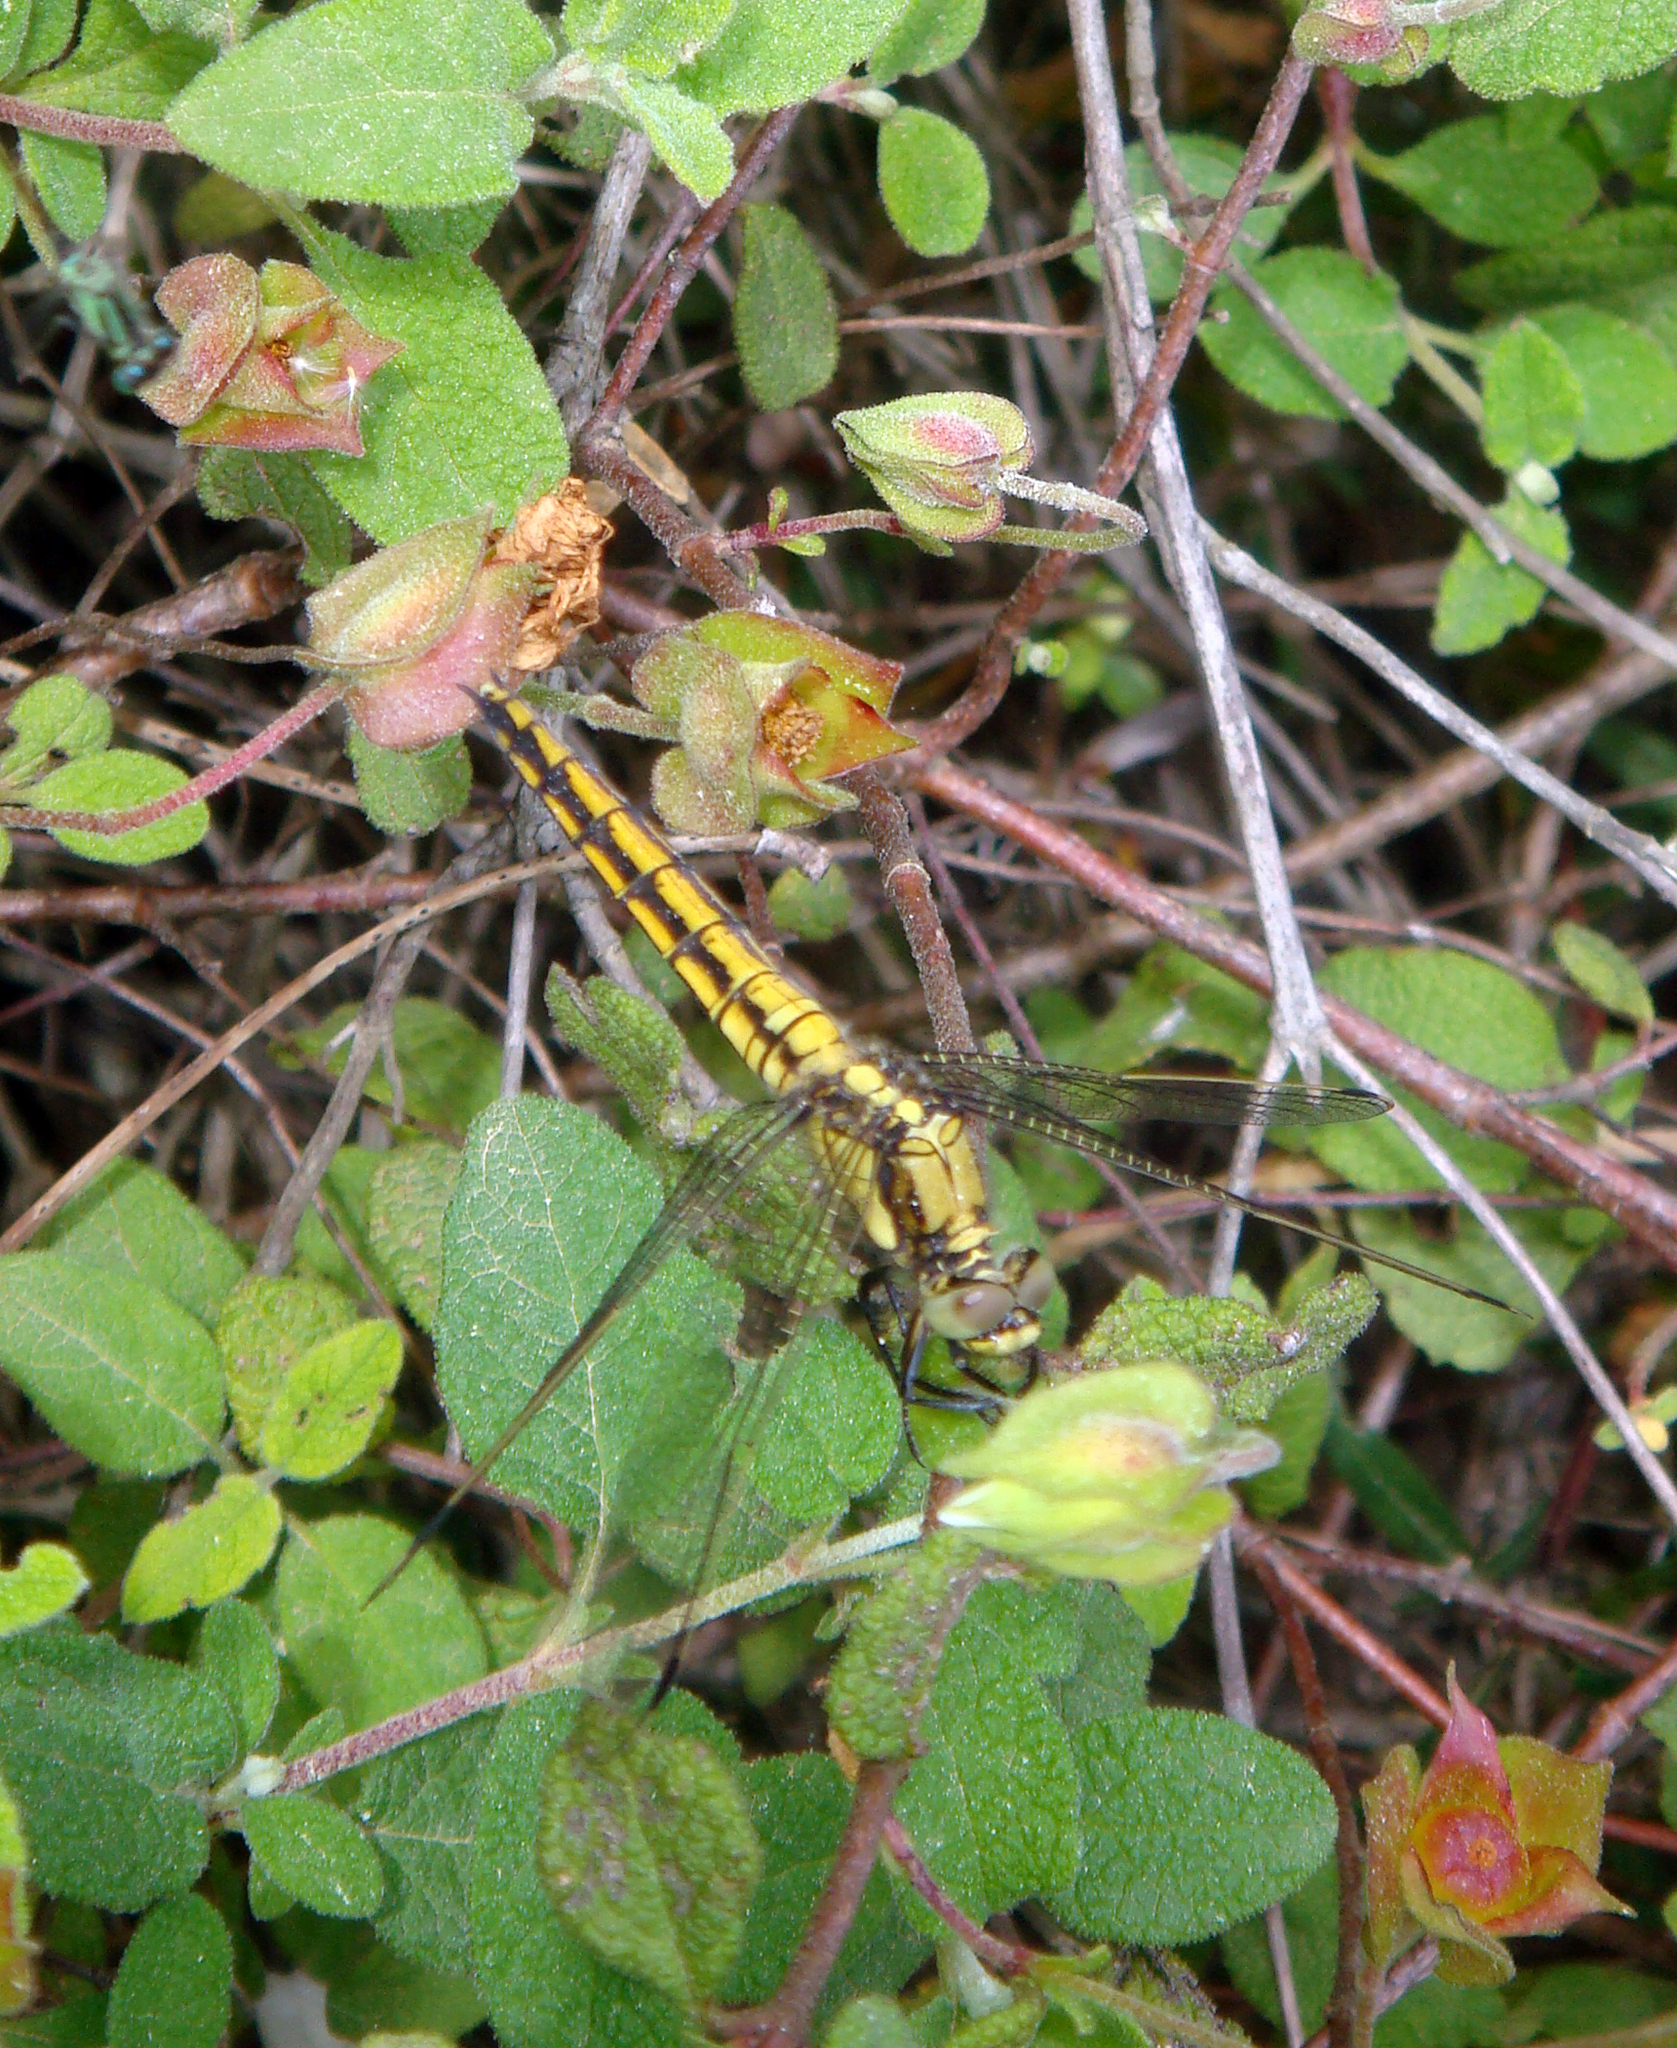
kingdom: Animalia
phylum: Arthropoda
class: Insecta
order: Odonata
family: Libellulidae
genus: Orthetrum
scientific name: Orthetrum cancellatum
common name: Black-tailed skimmer
